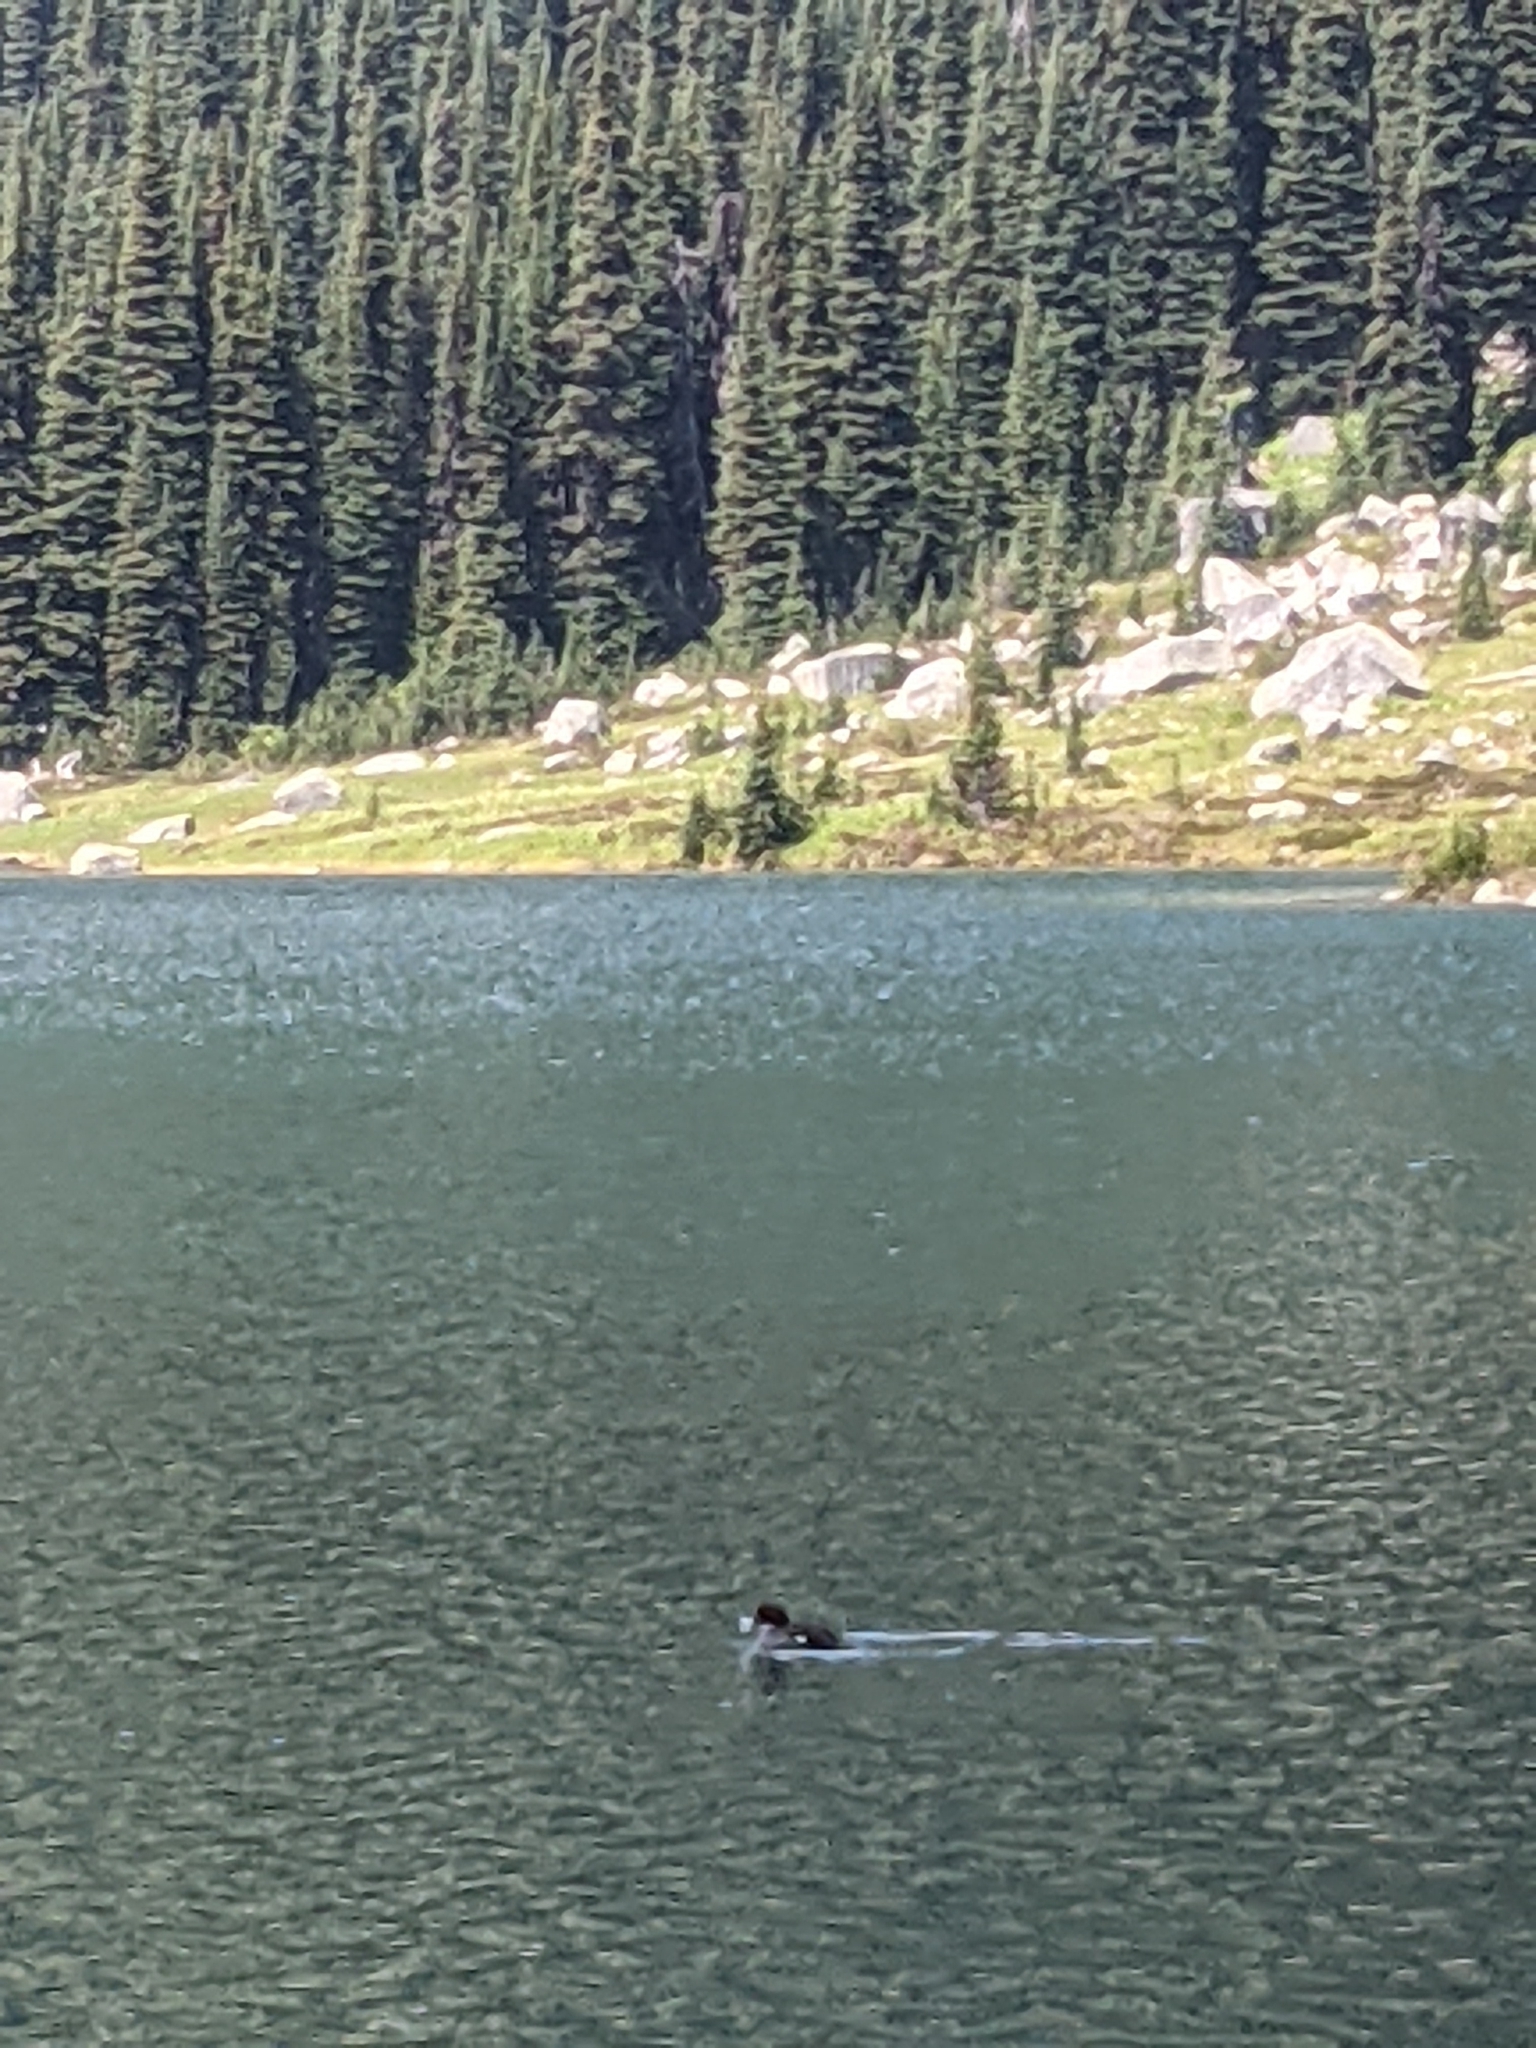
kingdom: Animalia
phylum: Chordata
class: Aves
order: Anseriformes
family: Anatidae
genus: Aythya
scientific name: Aythya marila
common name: Greater scaup
